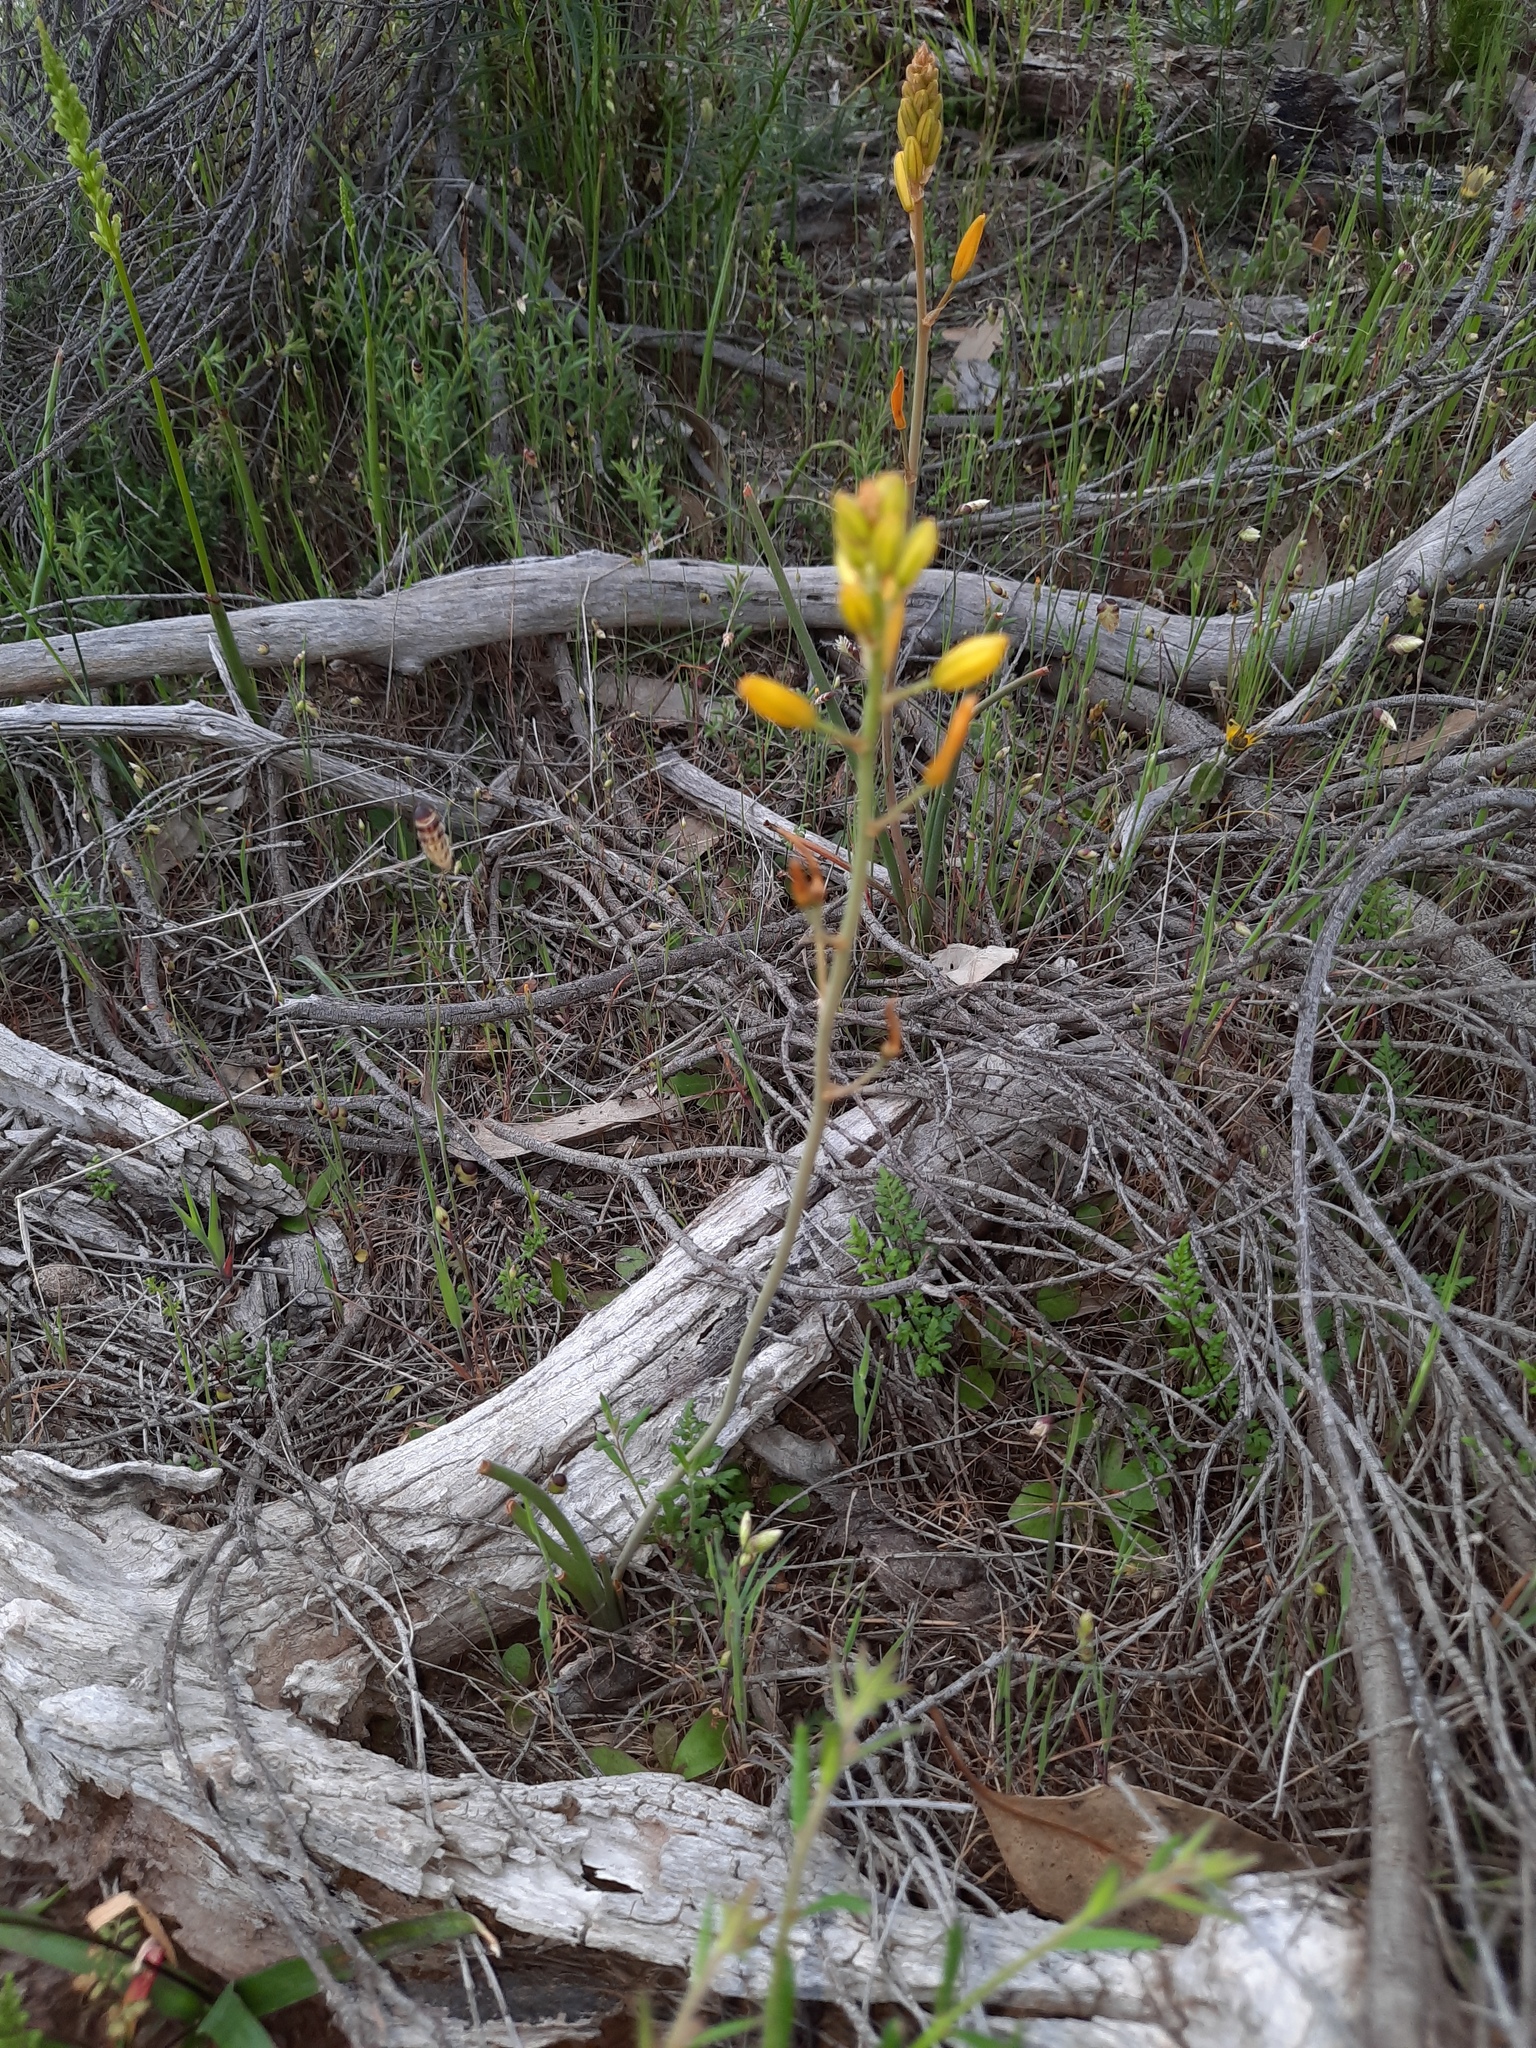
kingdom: Plantae
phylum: Tracheophyta
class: Liliopsida
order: Asparagales
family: Asphodelaceae
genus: Bulbine
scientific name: Bulbine bulbosa
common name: Golden-lily
